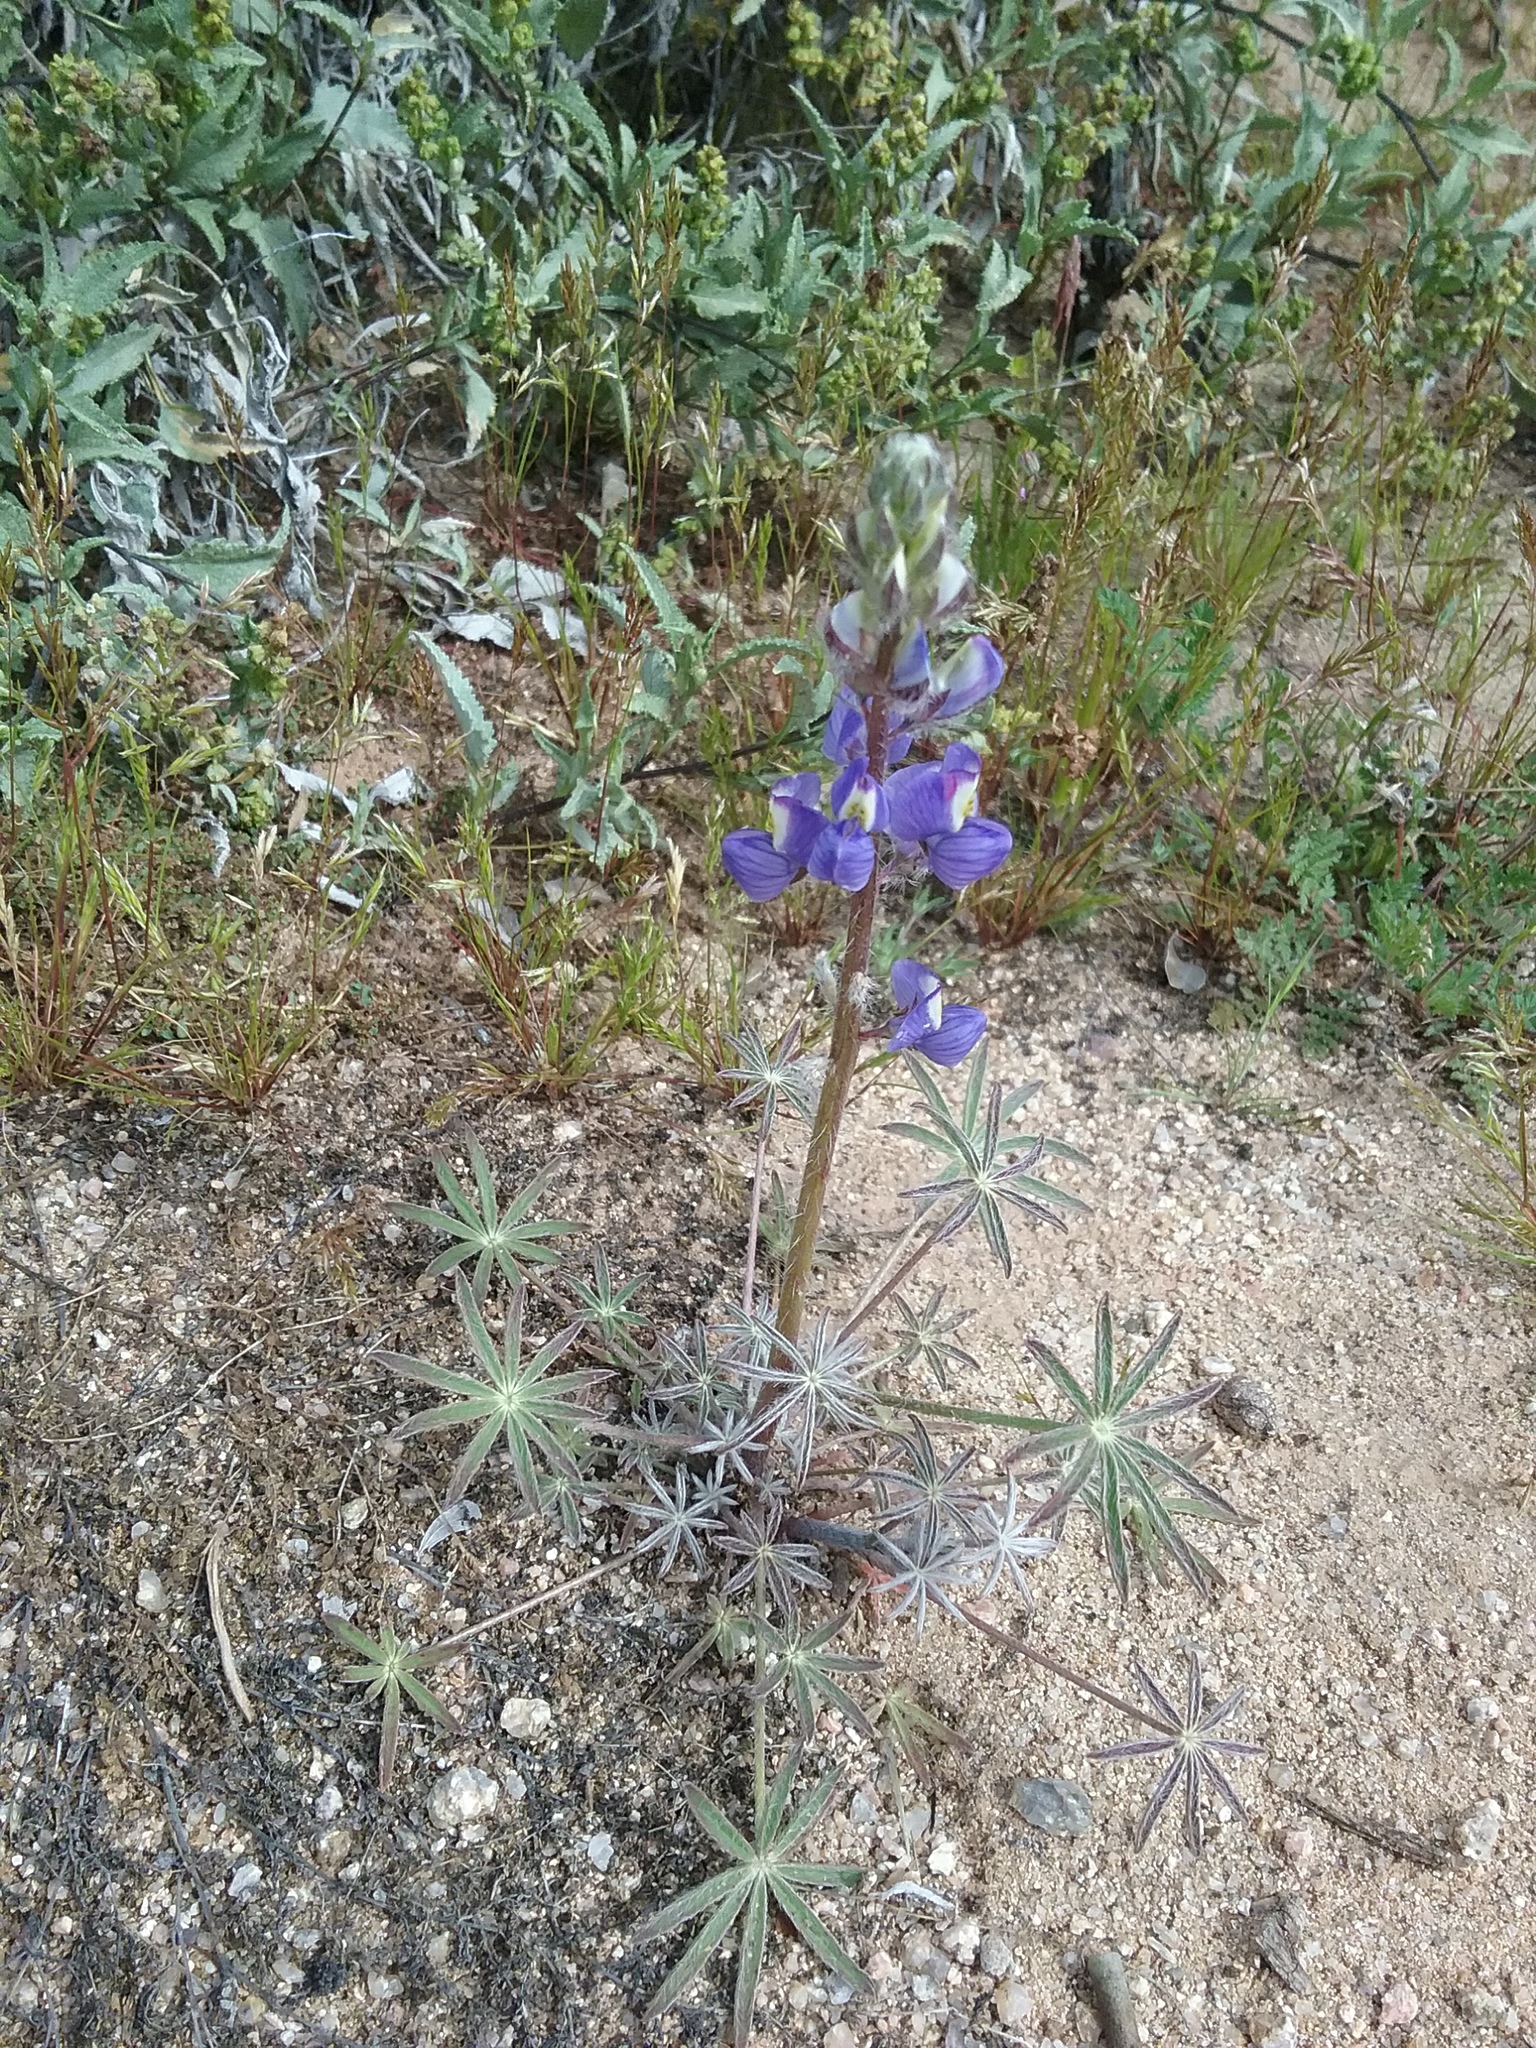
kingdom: Plantae
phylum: Tracheophyta
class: Magnoliopsida
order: Fabales
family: Fabaceae
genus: Lupinus
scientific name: Lupinus sparsiflorus
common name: Coulter's lupine
